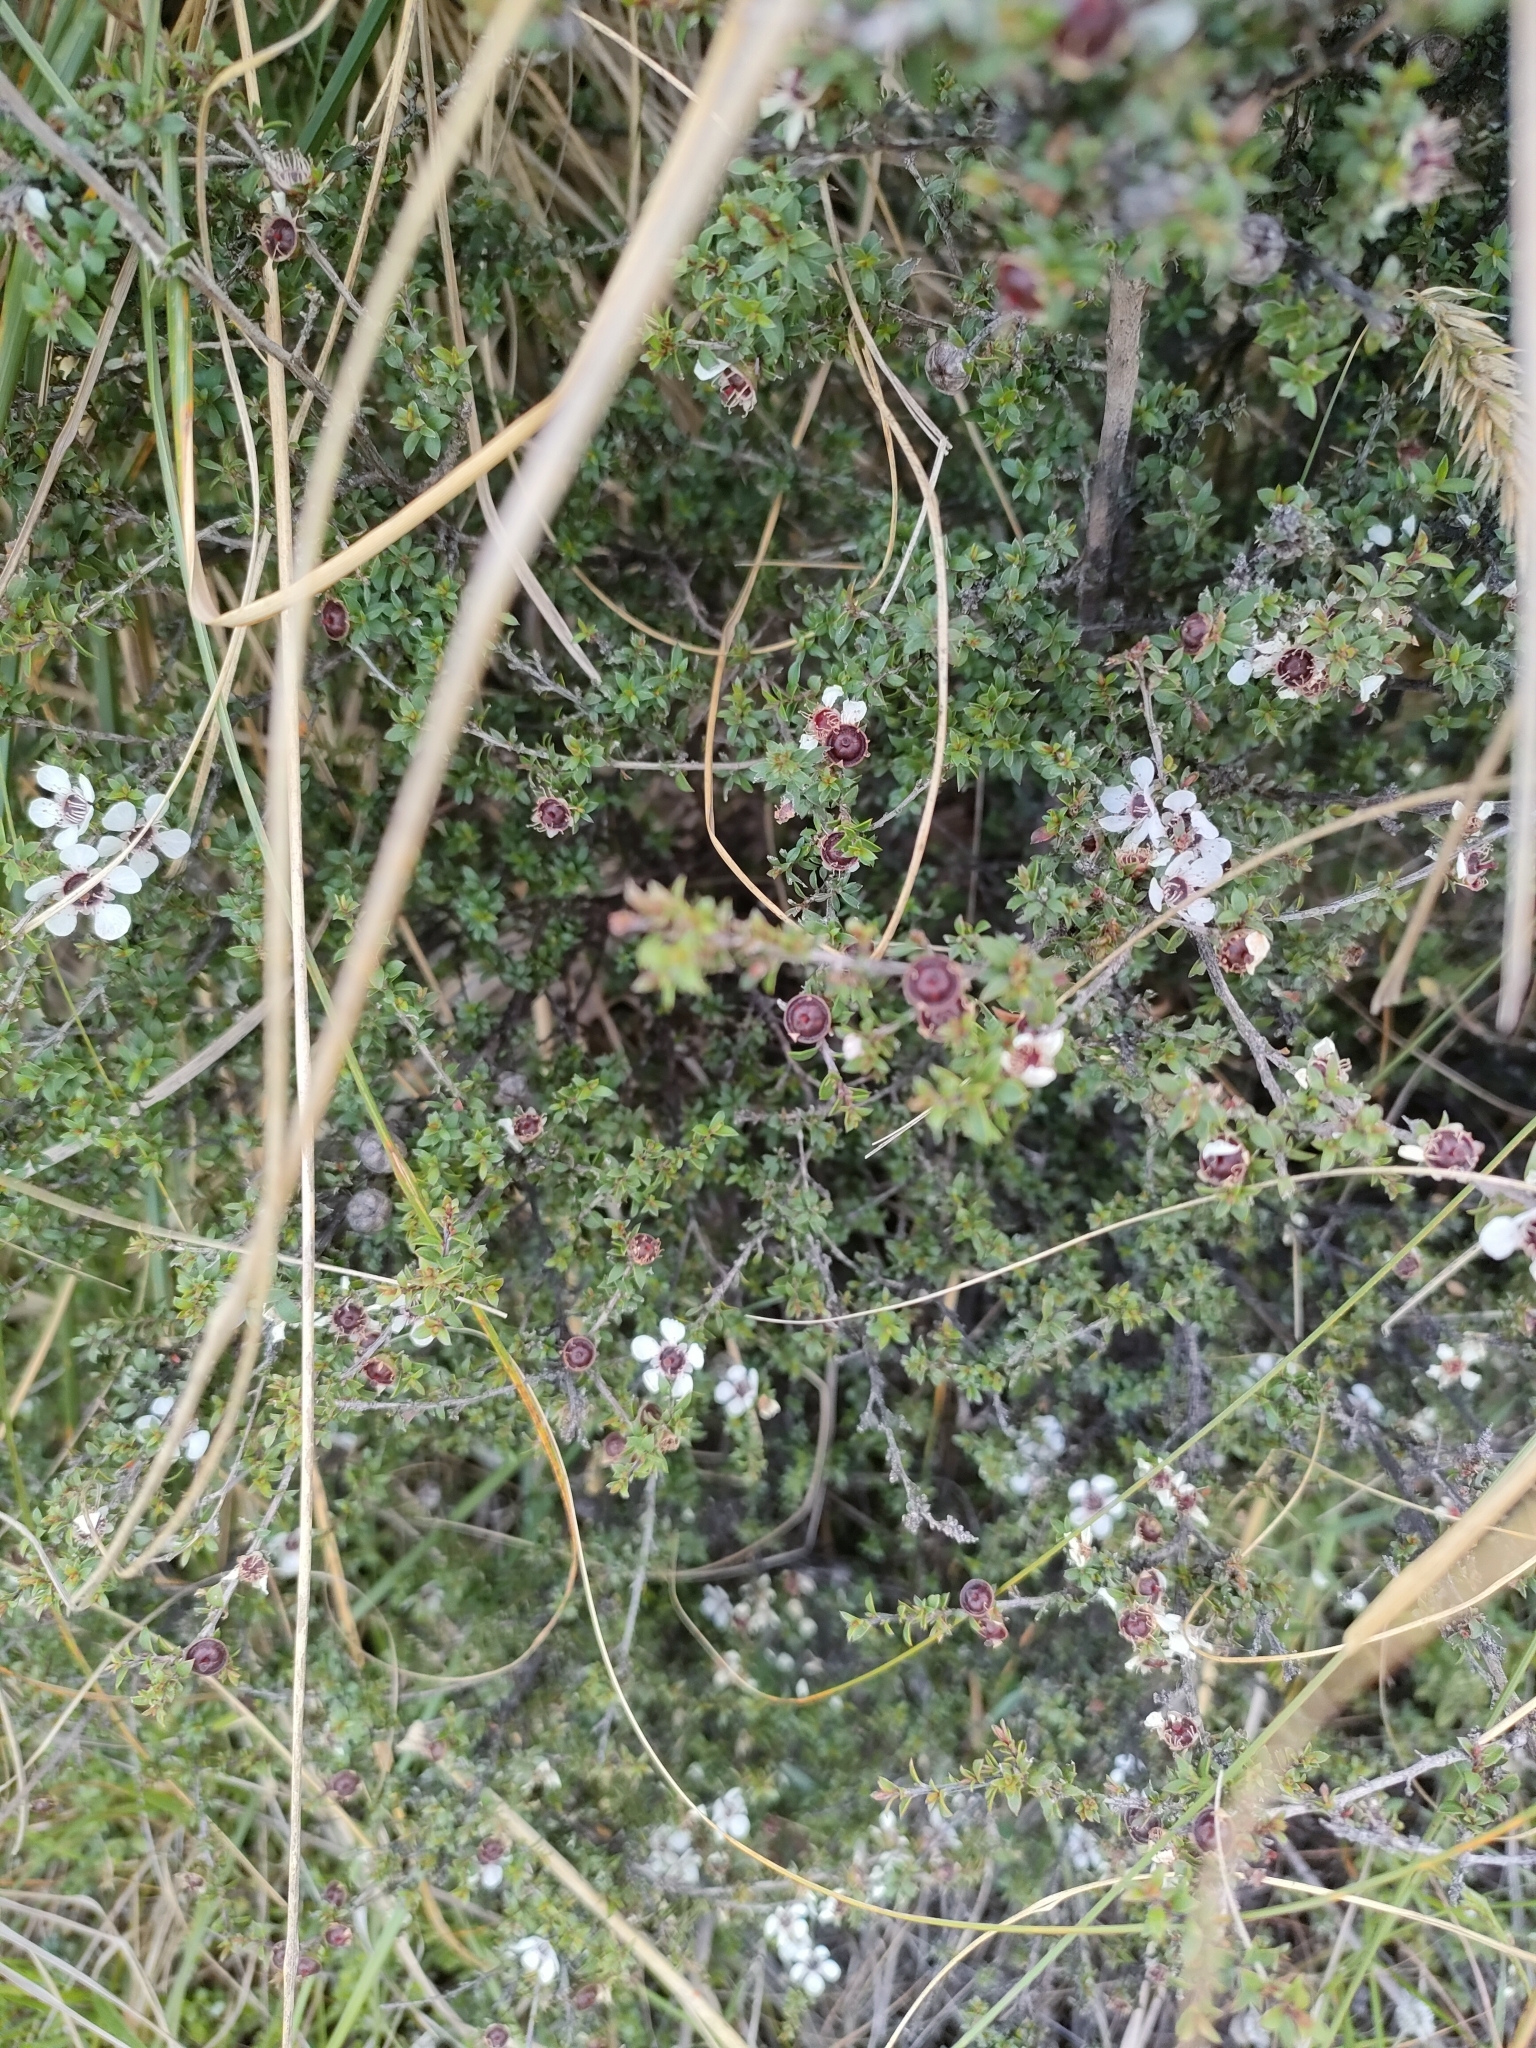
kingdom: Plantae
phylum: Tracheophyta
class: Magnoliopsida
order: Myrtales
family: Myrtaceae
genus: Leptospermum
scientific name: Leptospermum scoparium
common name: Broom tea-tree
